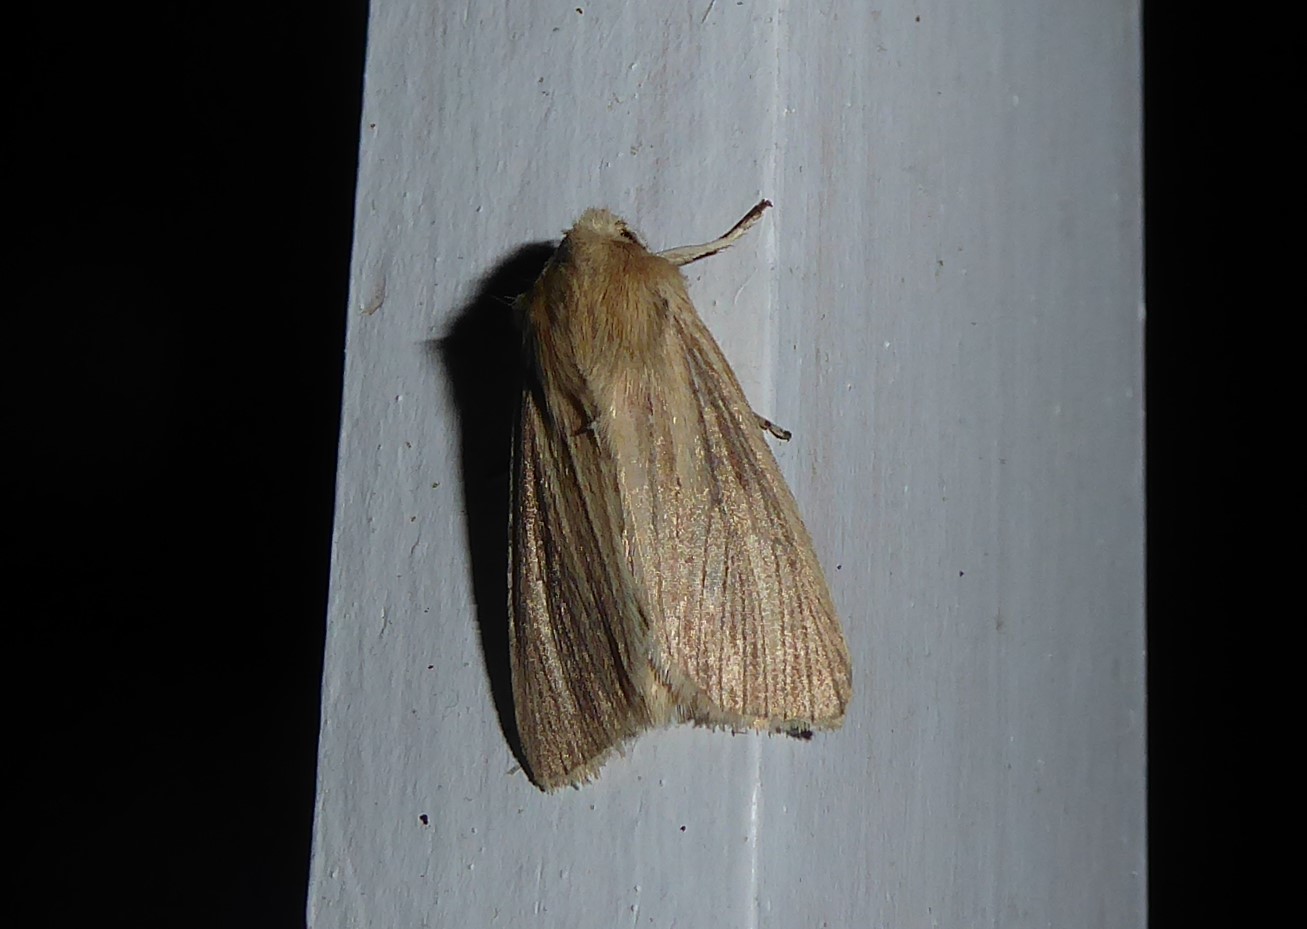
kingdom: Animalia
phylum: Arthropoda
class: Insecta
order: Lepidoptera
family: Noctuidae
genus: Ichneutica
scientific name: Ichneutica arotis
